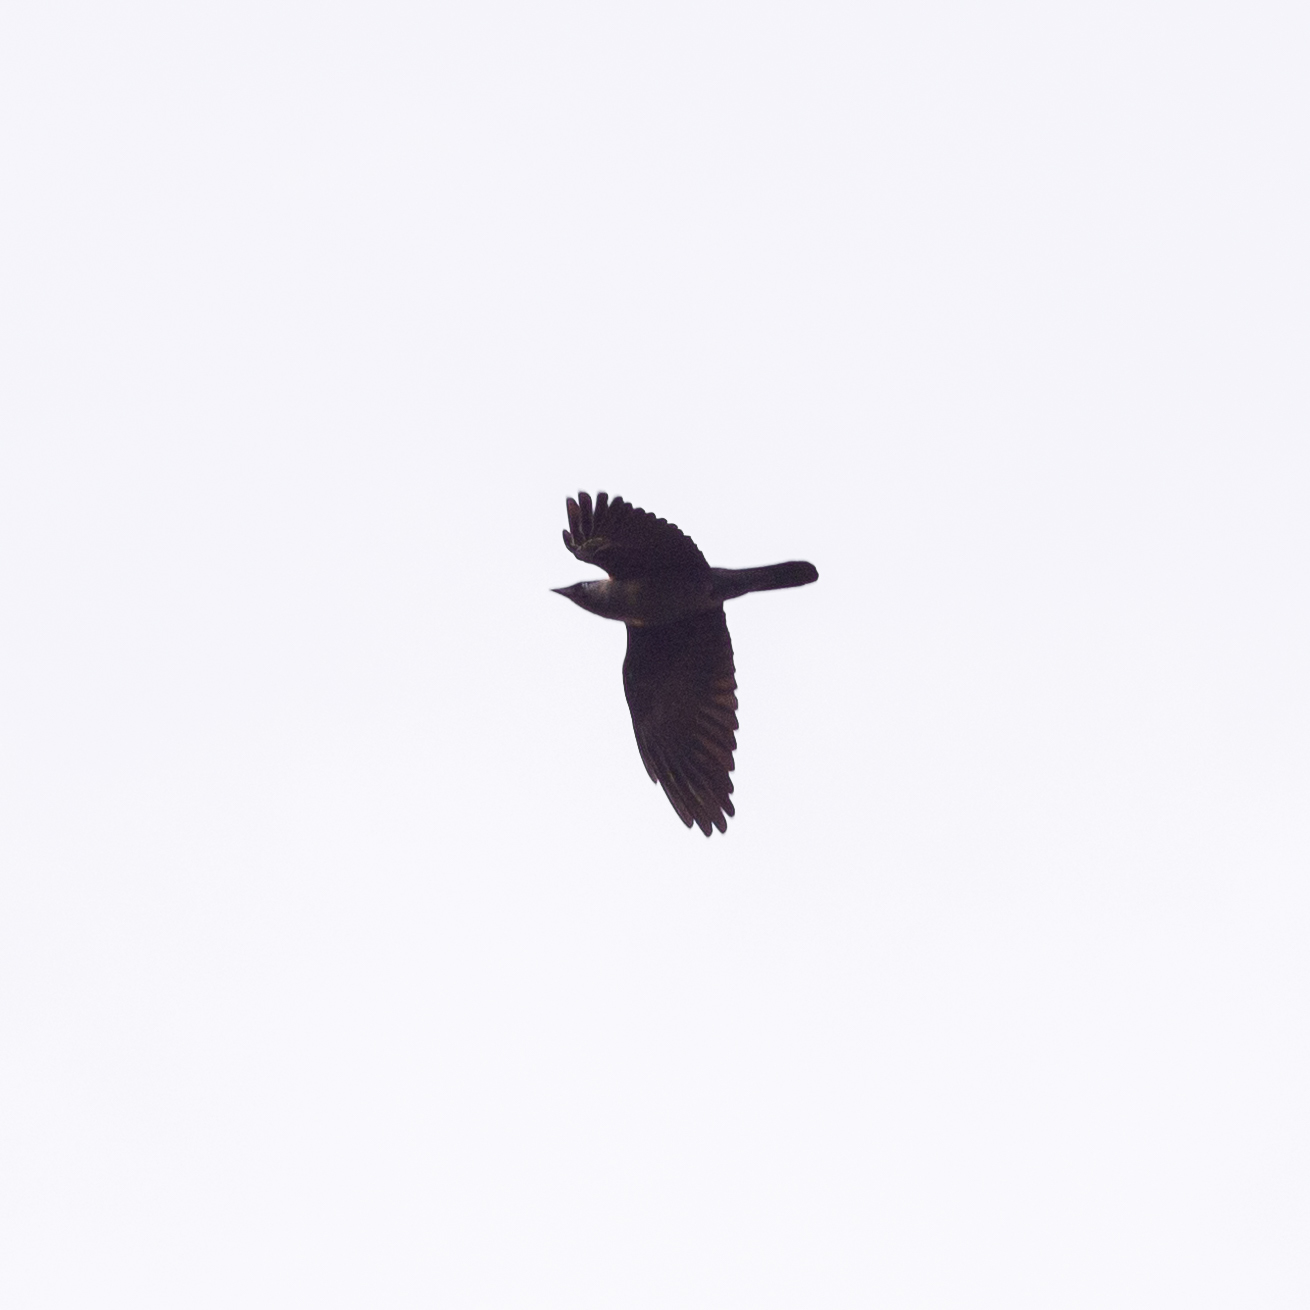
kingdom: Animalia
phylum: Chordata
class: Aves
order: Passeriformes
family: Corvidae
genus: Coloeus
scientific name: Coloeus monedula
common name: Western jackdaw
